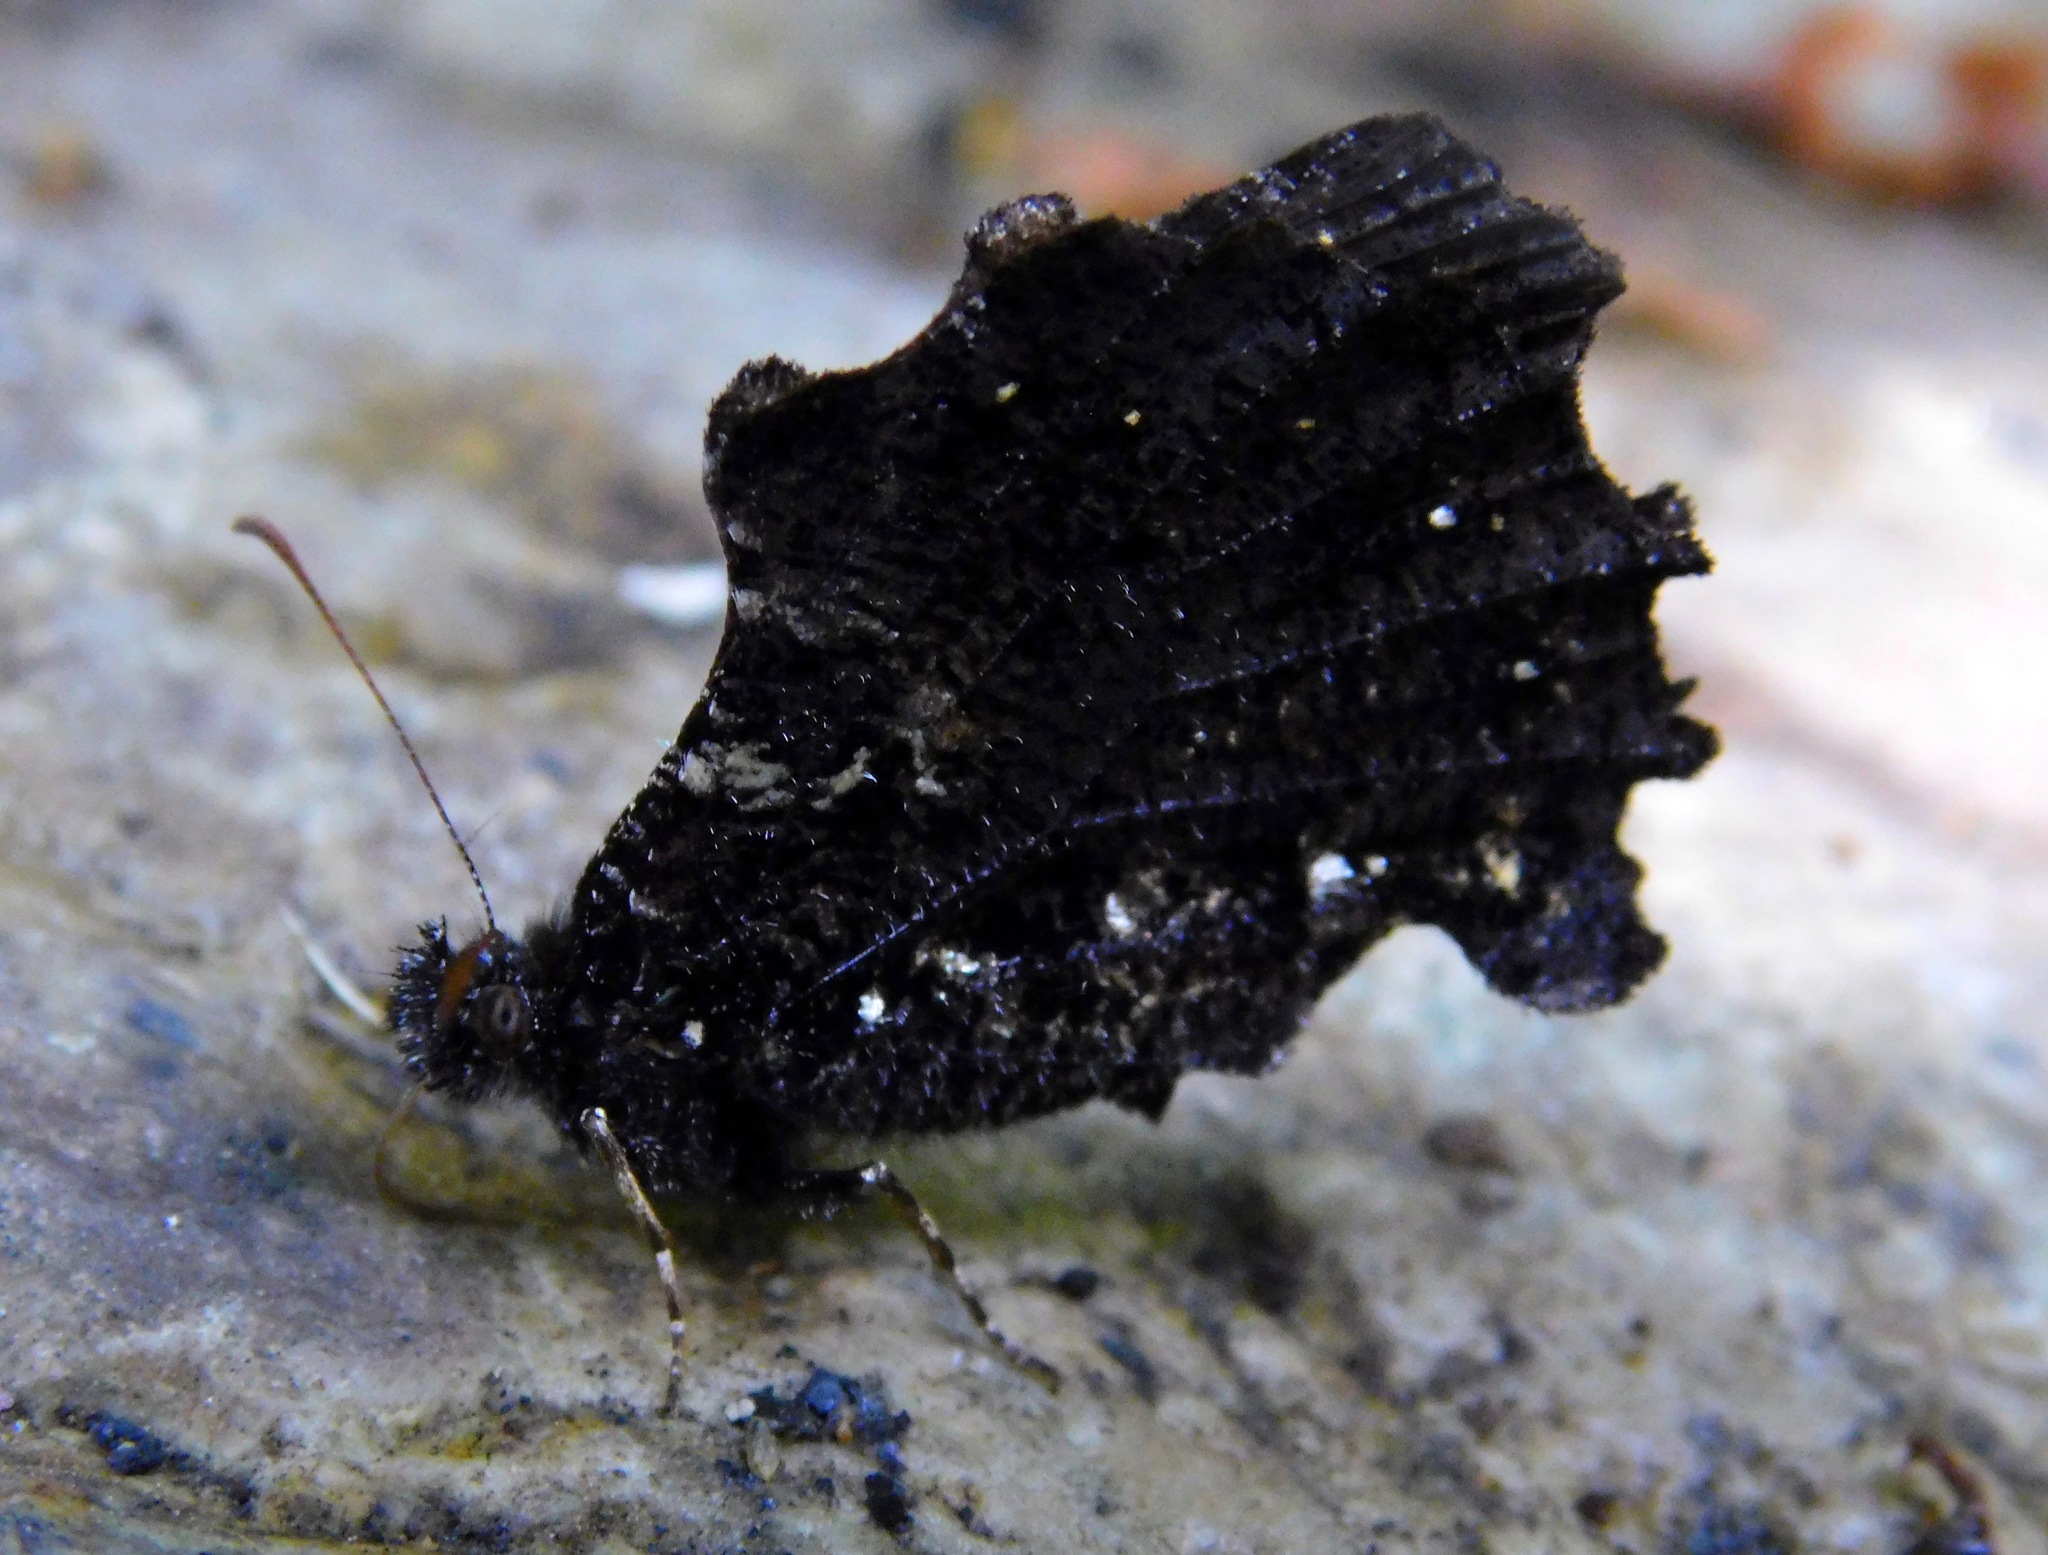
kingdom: Animalia
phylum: Arthropoda
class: Insecta
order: Lepidoptera
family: Nymphalidae
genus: Steroma
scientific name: Steroma bega
